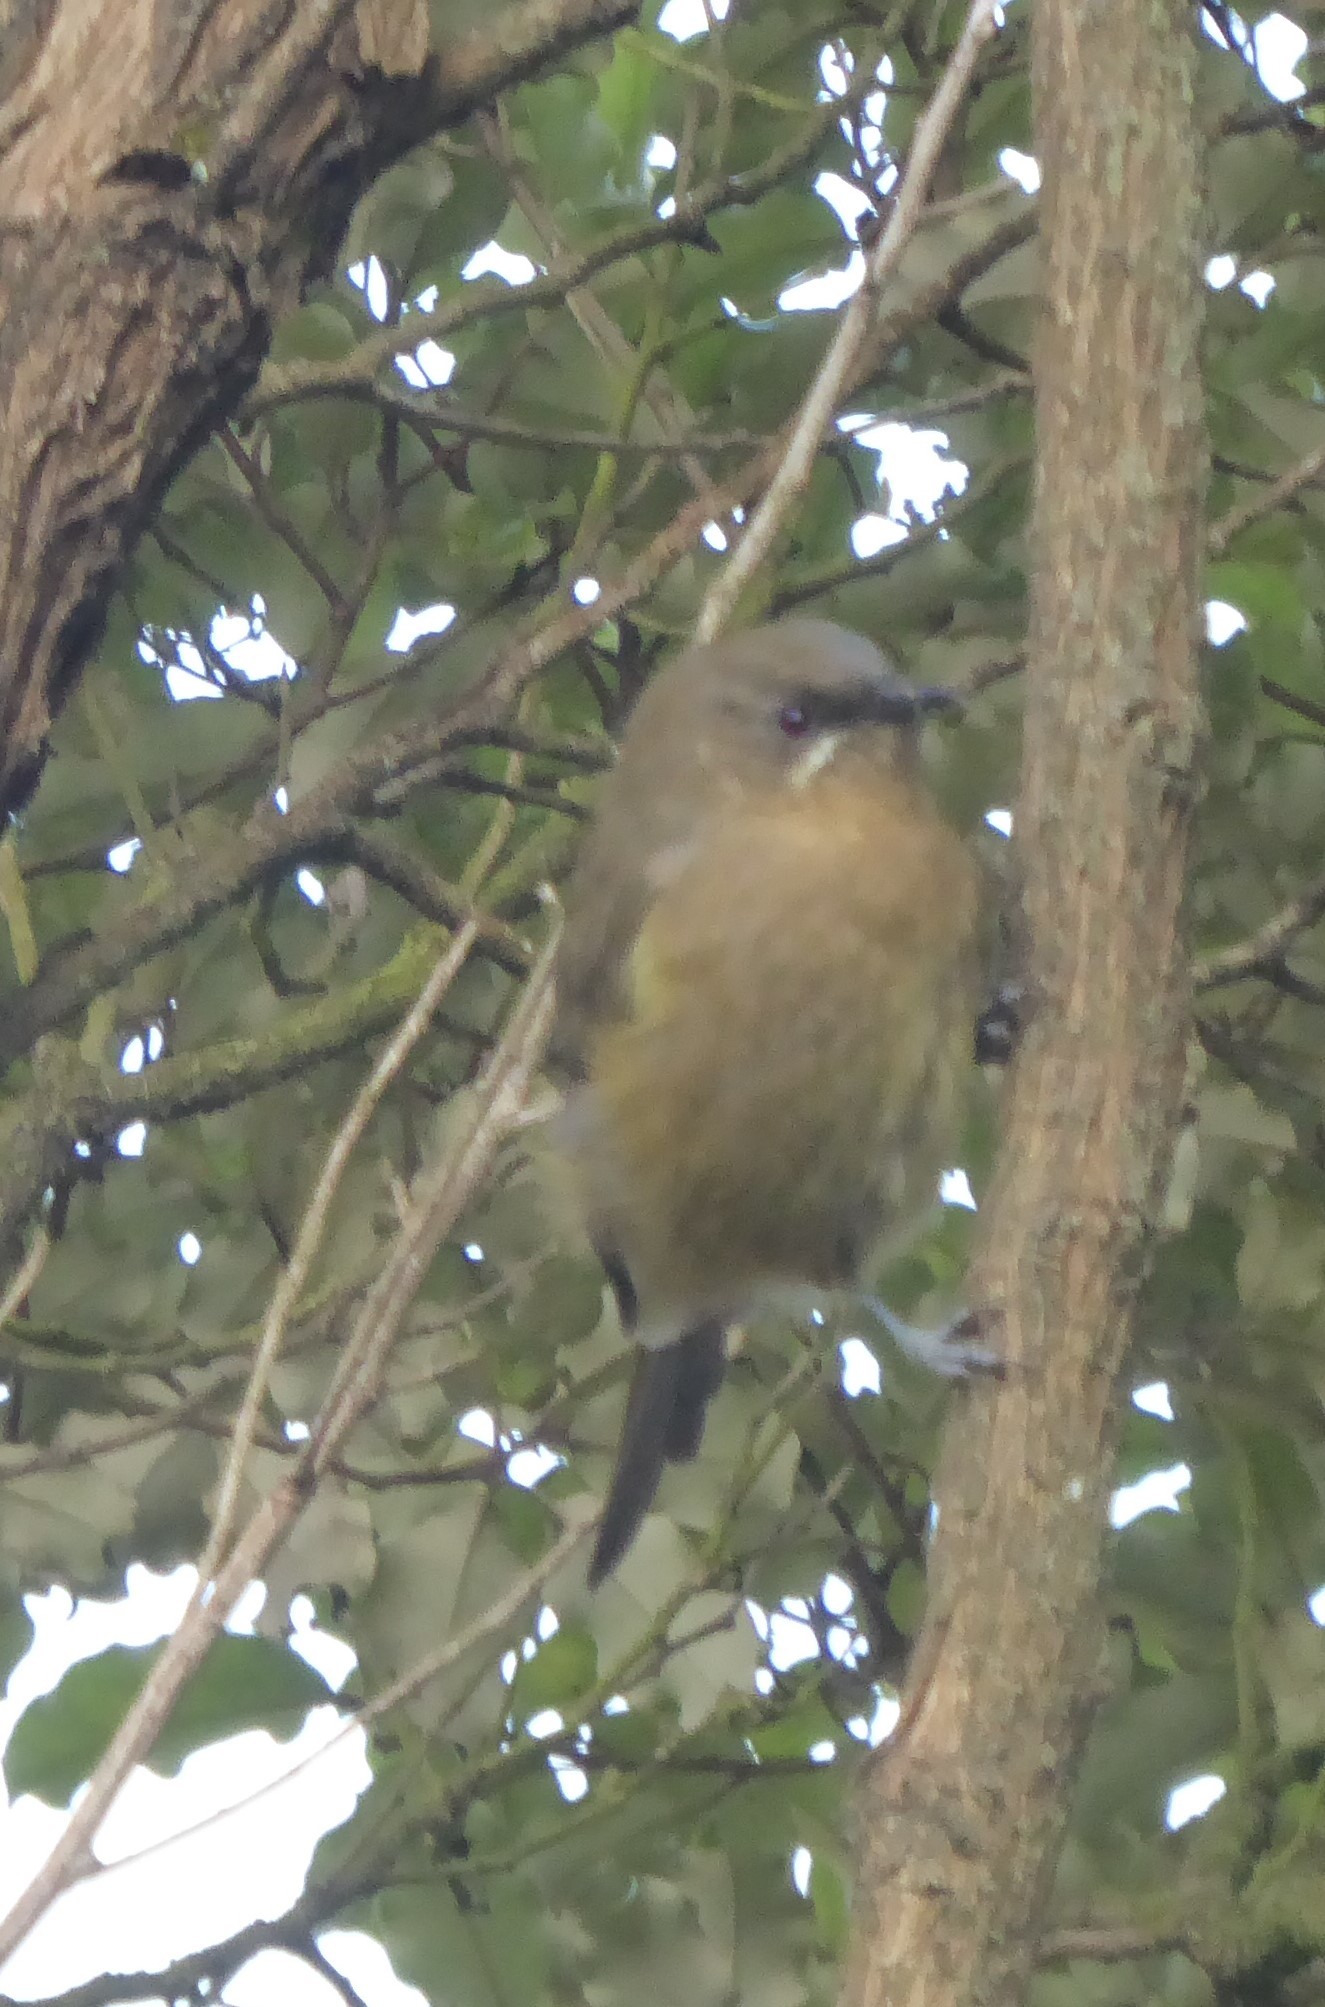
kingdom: Animalia
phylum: Chordata
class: Aves
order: Passeriformes
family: Meliphagidae
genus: Anthornis
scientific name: Anthornis melanura
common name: New zealand bellbird
